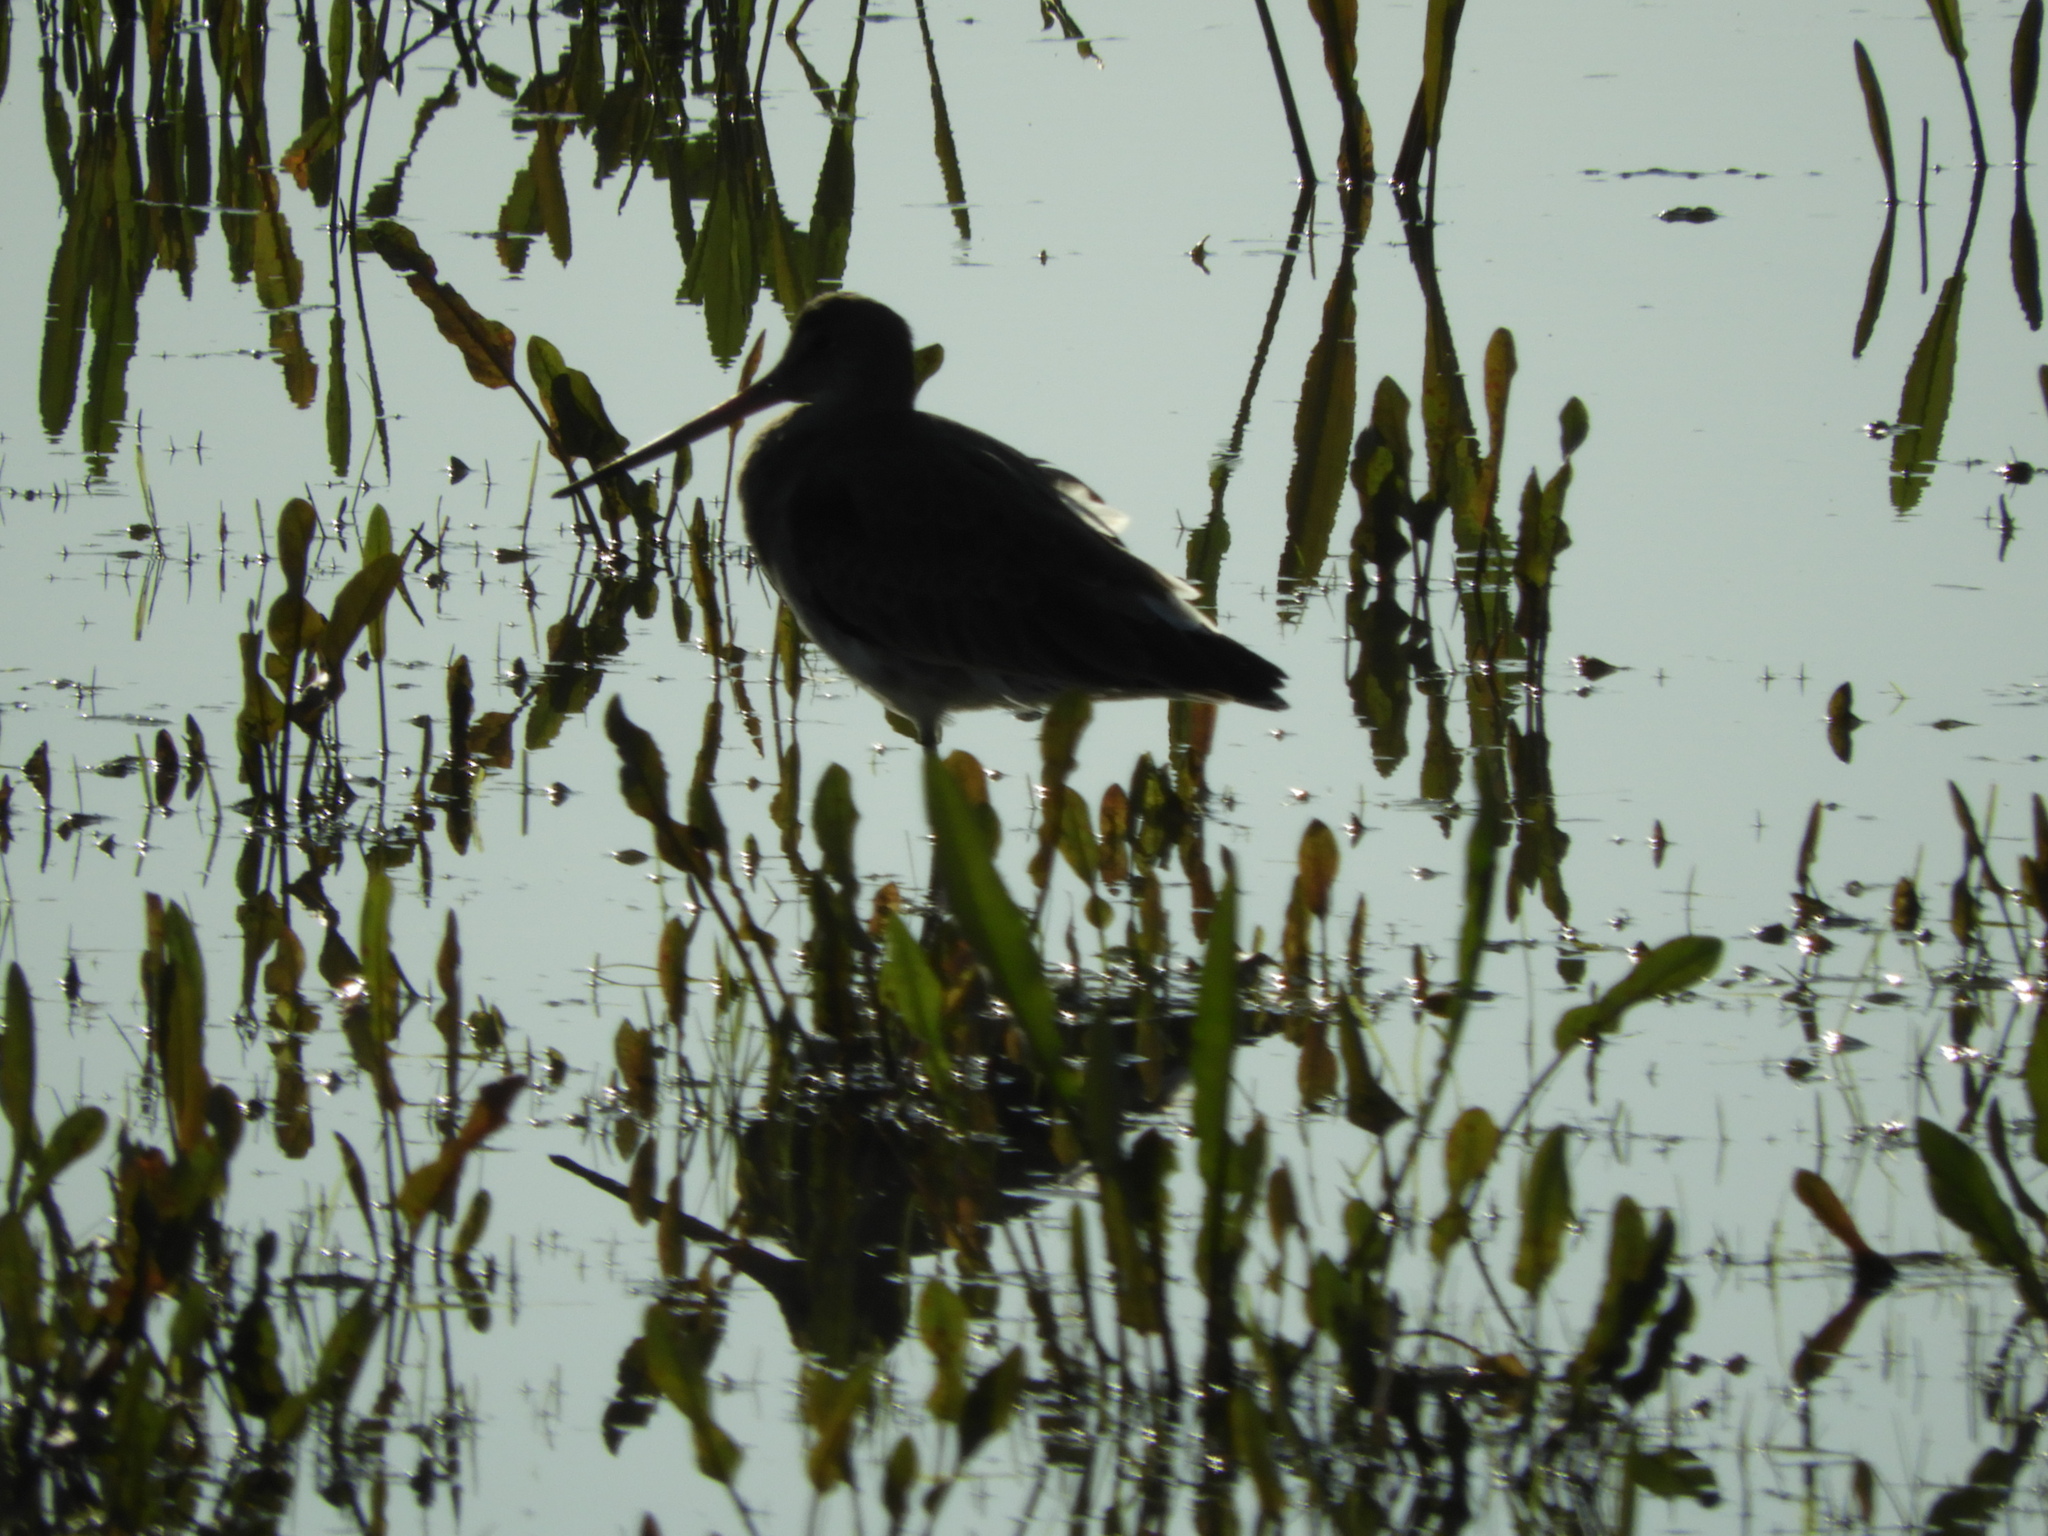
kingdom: Animalia
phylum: Chordata
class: Aves
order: Charadriiformes
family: Scolopacidae
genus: Limosa
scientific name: Limosa limosa
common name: Black-tailed godwit
